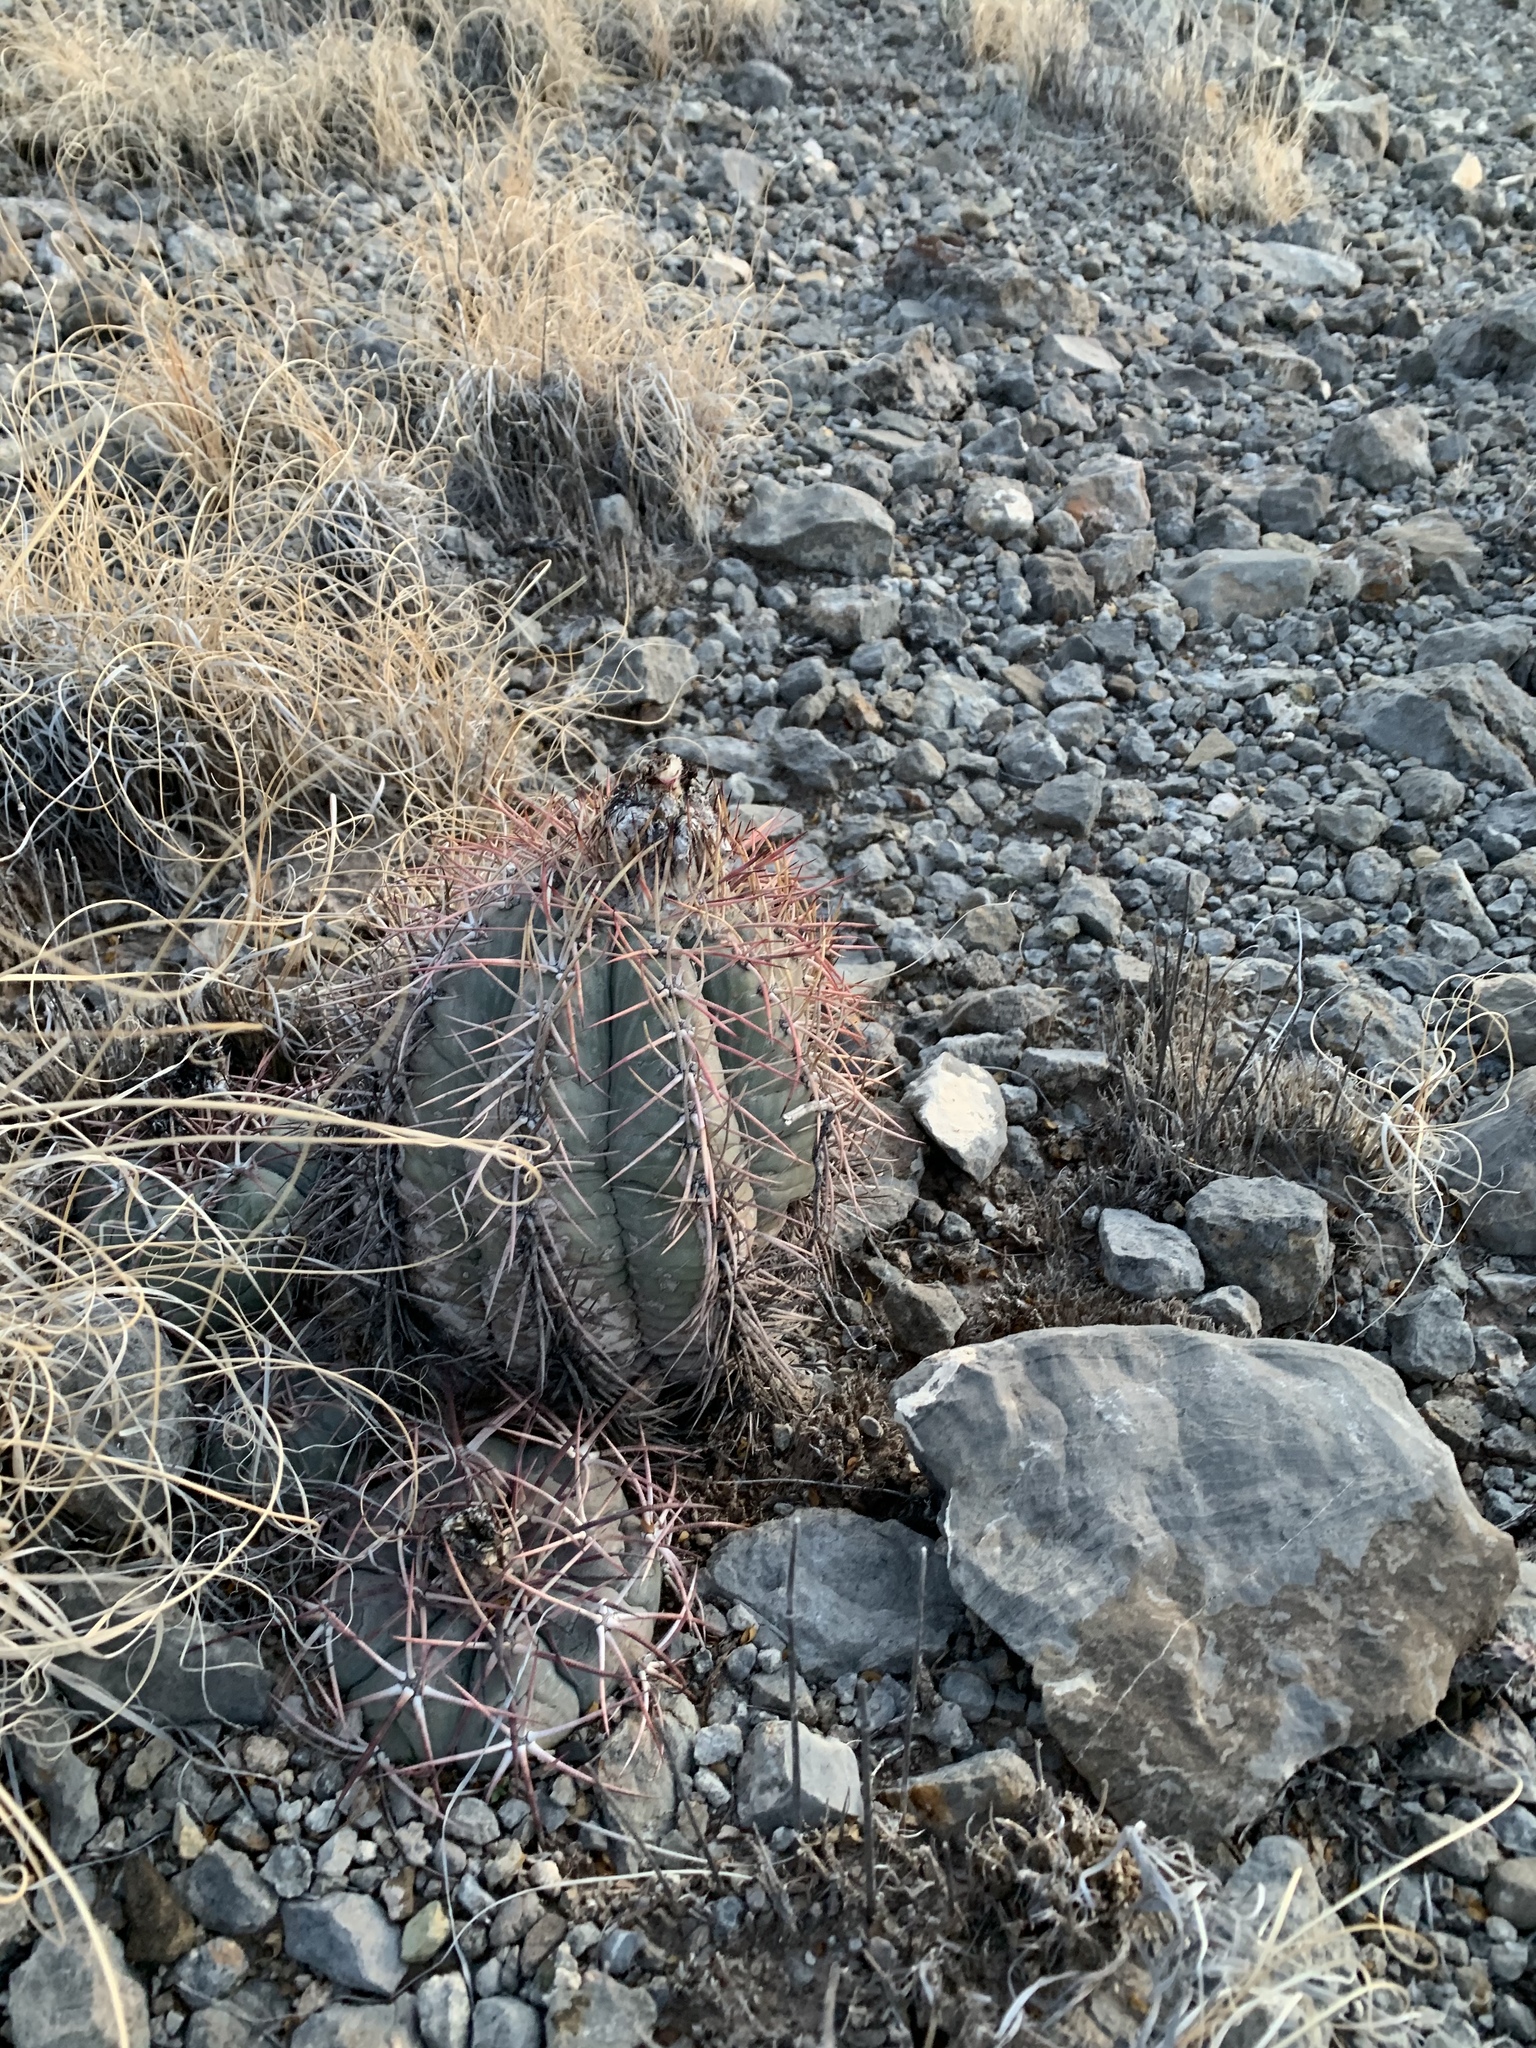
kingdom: Plantae
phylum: Tracheophyta
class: Magnoliopsida
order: Caryophyllales
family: Cactaceae
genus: Echinocactus
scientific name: Echinocactus horizonthalonius
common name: Devilshead
